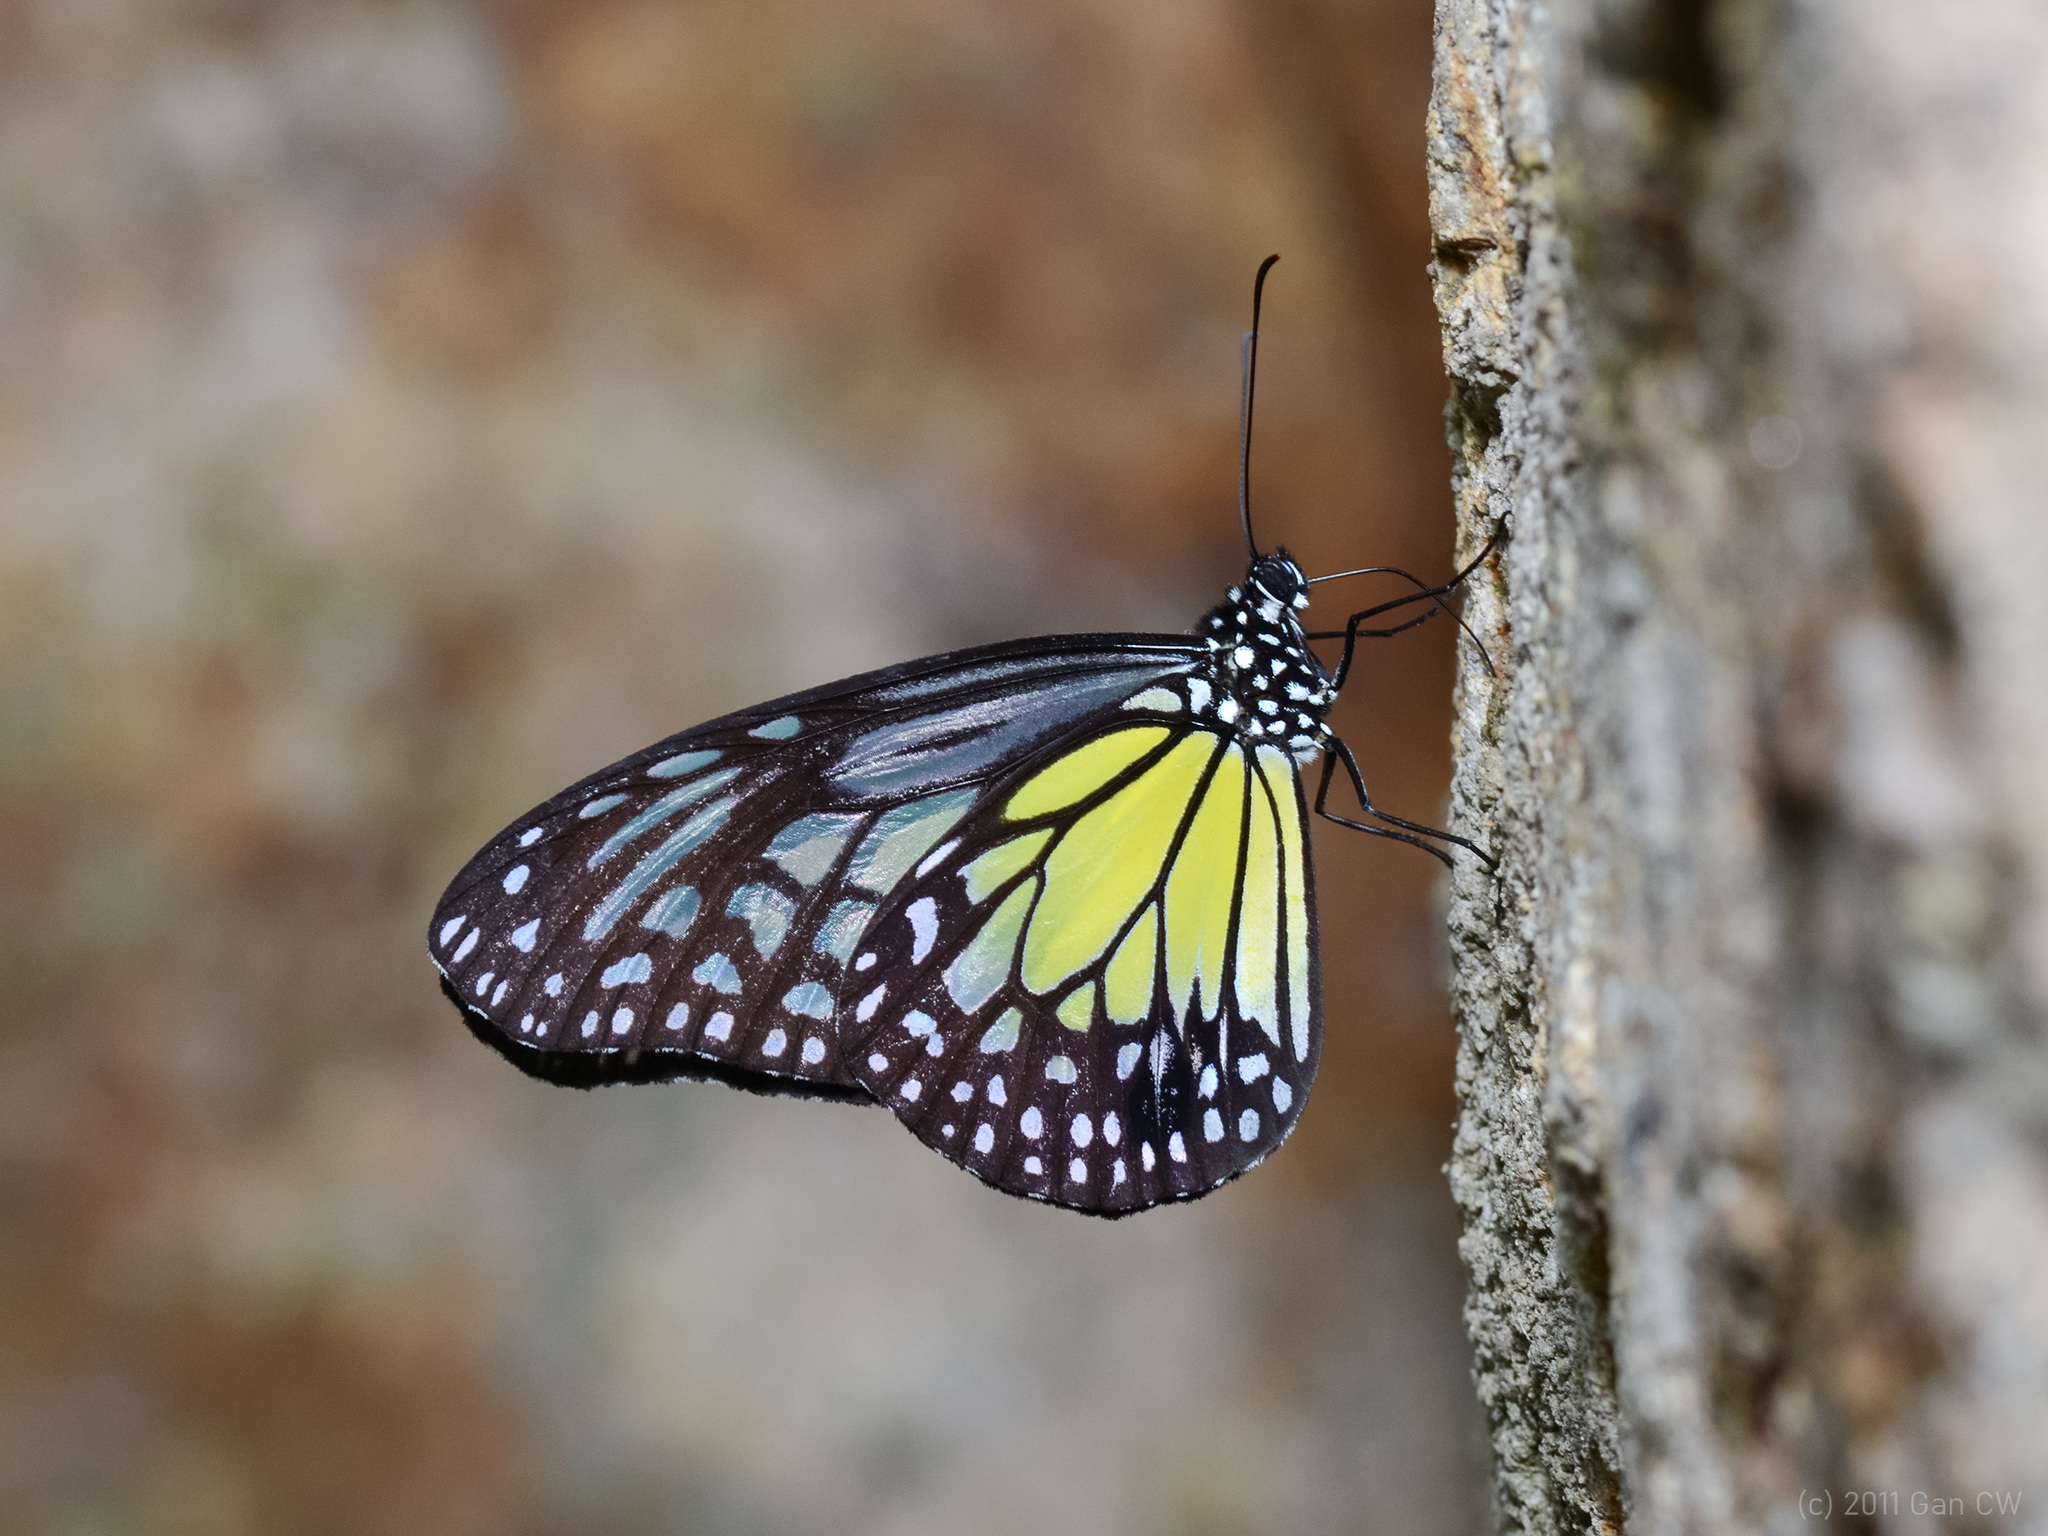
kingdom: Animalia
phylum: Arthropoda
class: Insecta
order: Lepidoptera
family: Nymphalidae
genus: Parantica
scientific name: Parantica aspasia
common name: Yellow glassy tiger
